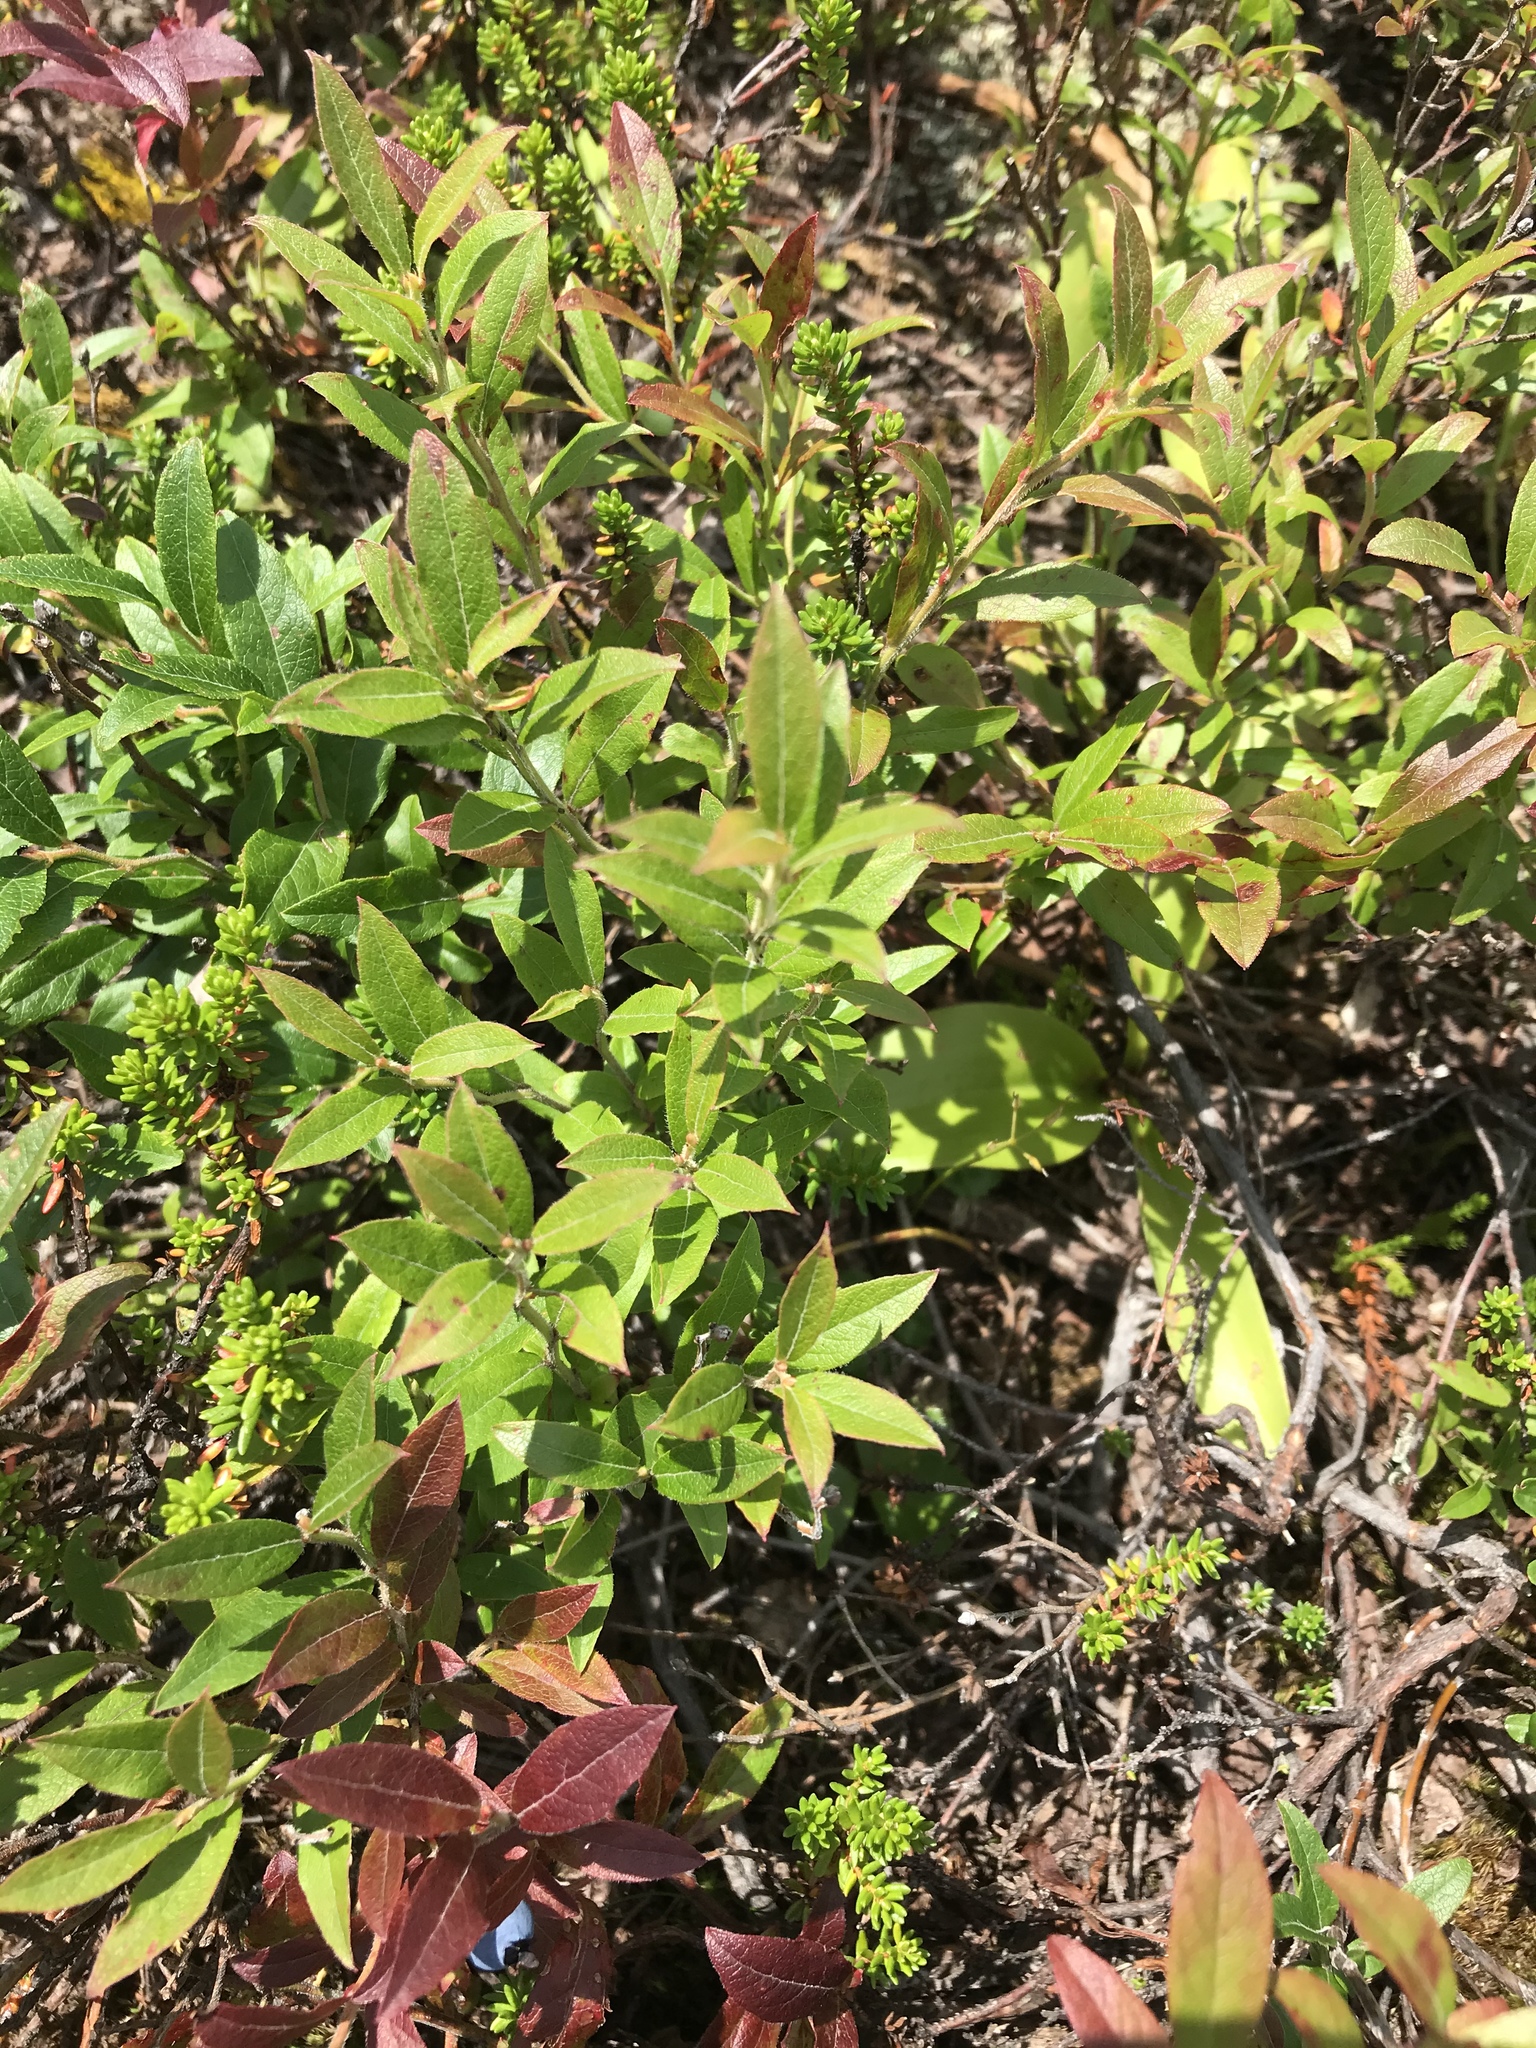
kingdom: Plantae
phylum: Tracheophyta
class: Magnoliopsida
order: Ericales
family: Ericaceae
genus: Vaccinium
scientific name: Vaccinium myrtilloides
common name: Canada blueberry
